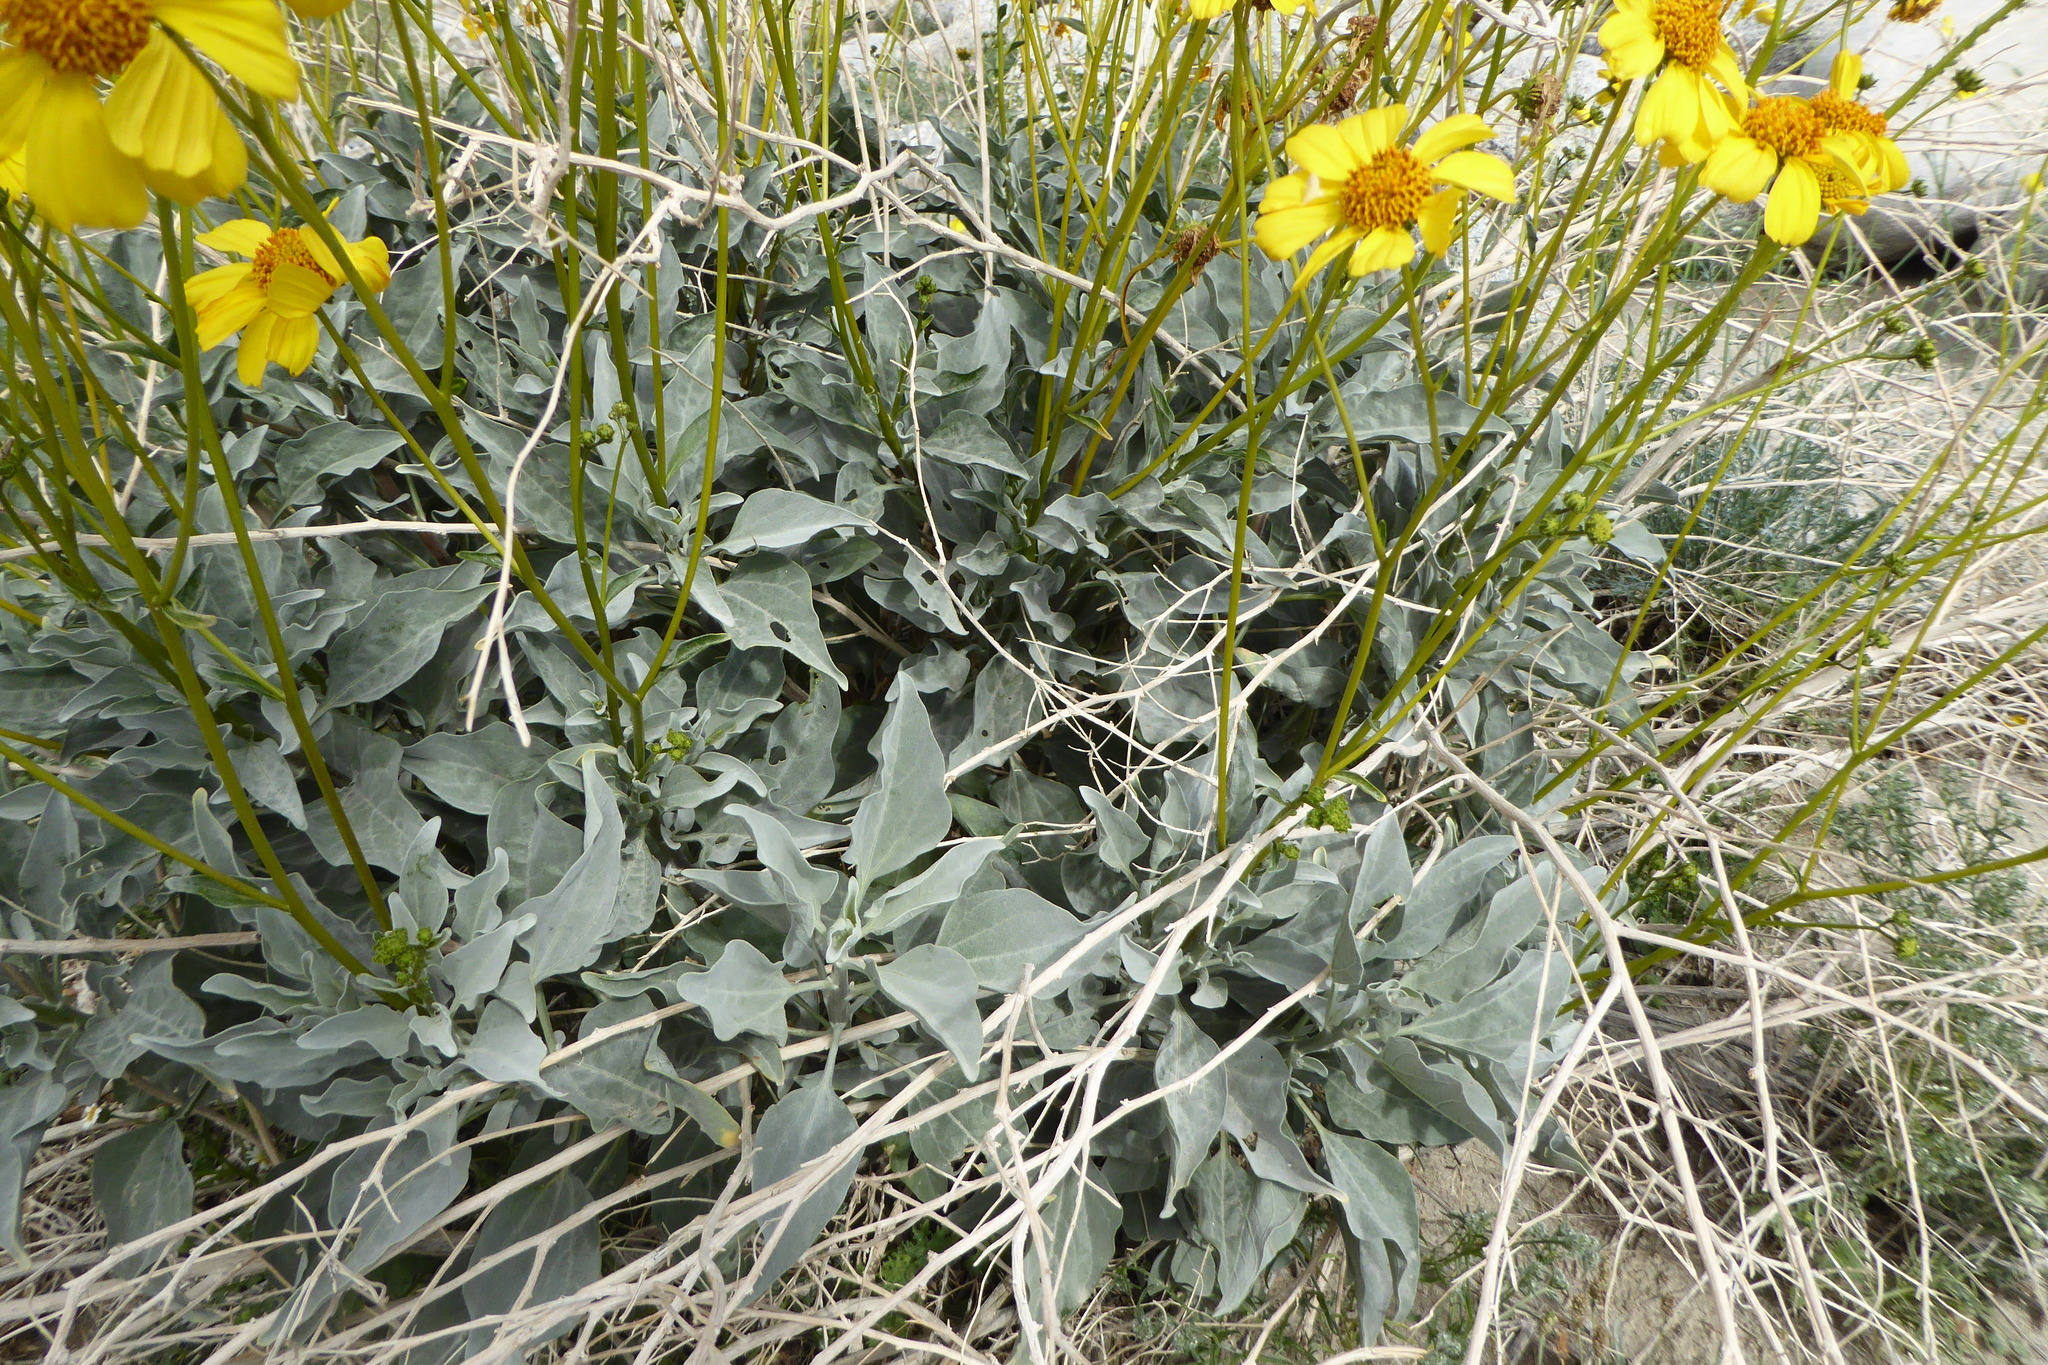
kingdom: Plantae
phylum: Tracheophyta
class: Magnoliopsida
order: Asterales
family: Asteraceae
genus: Encelia
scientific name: Encelia farinosa
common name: Brittlebush
